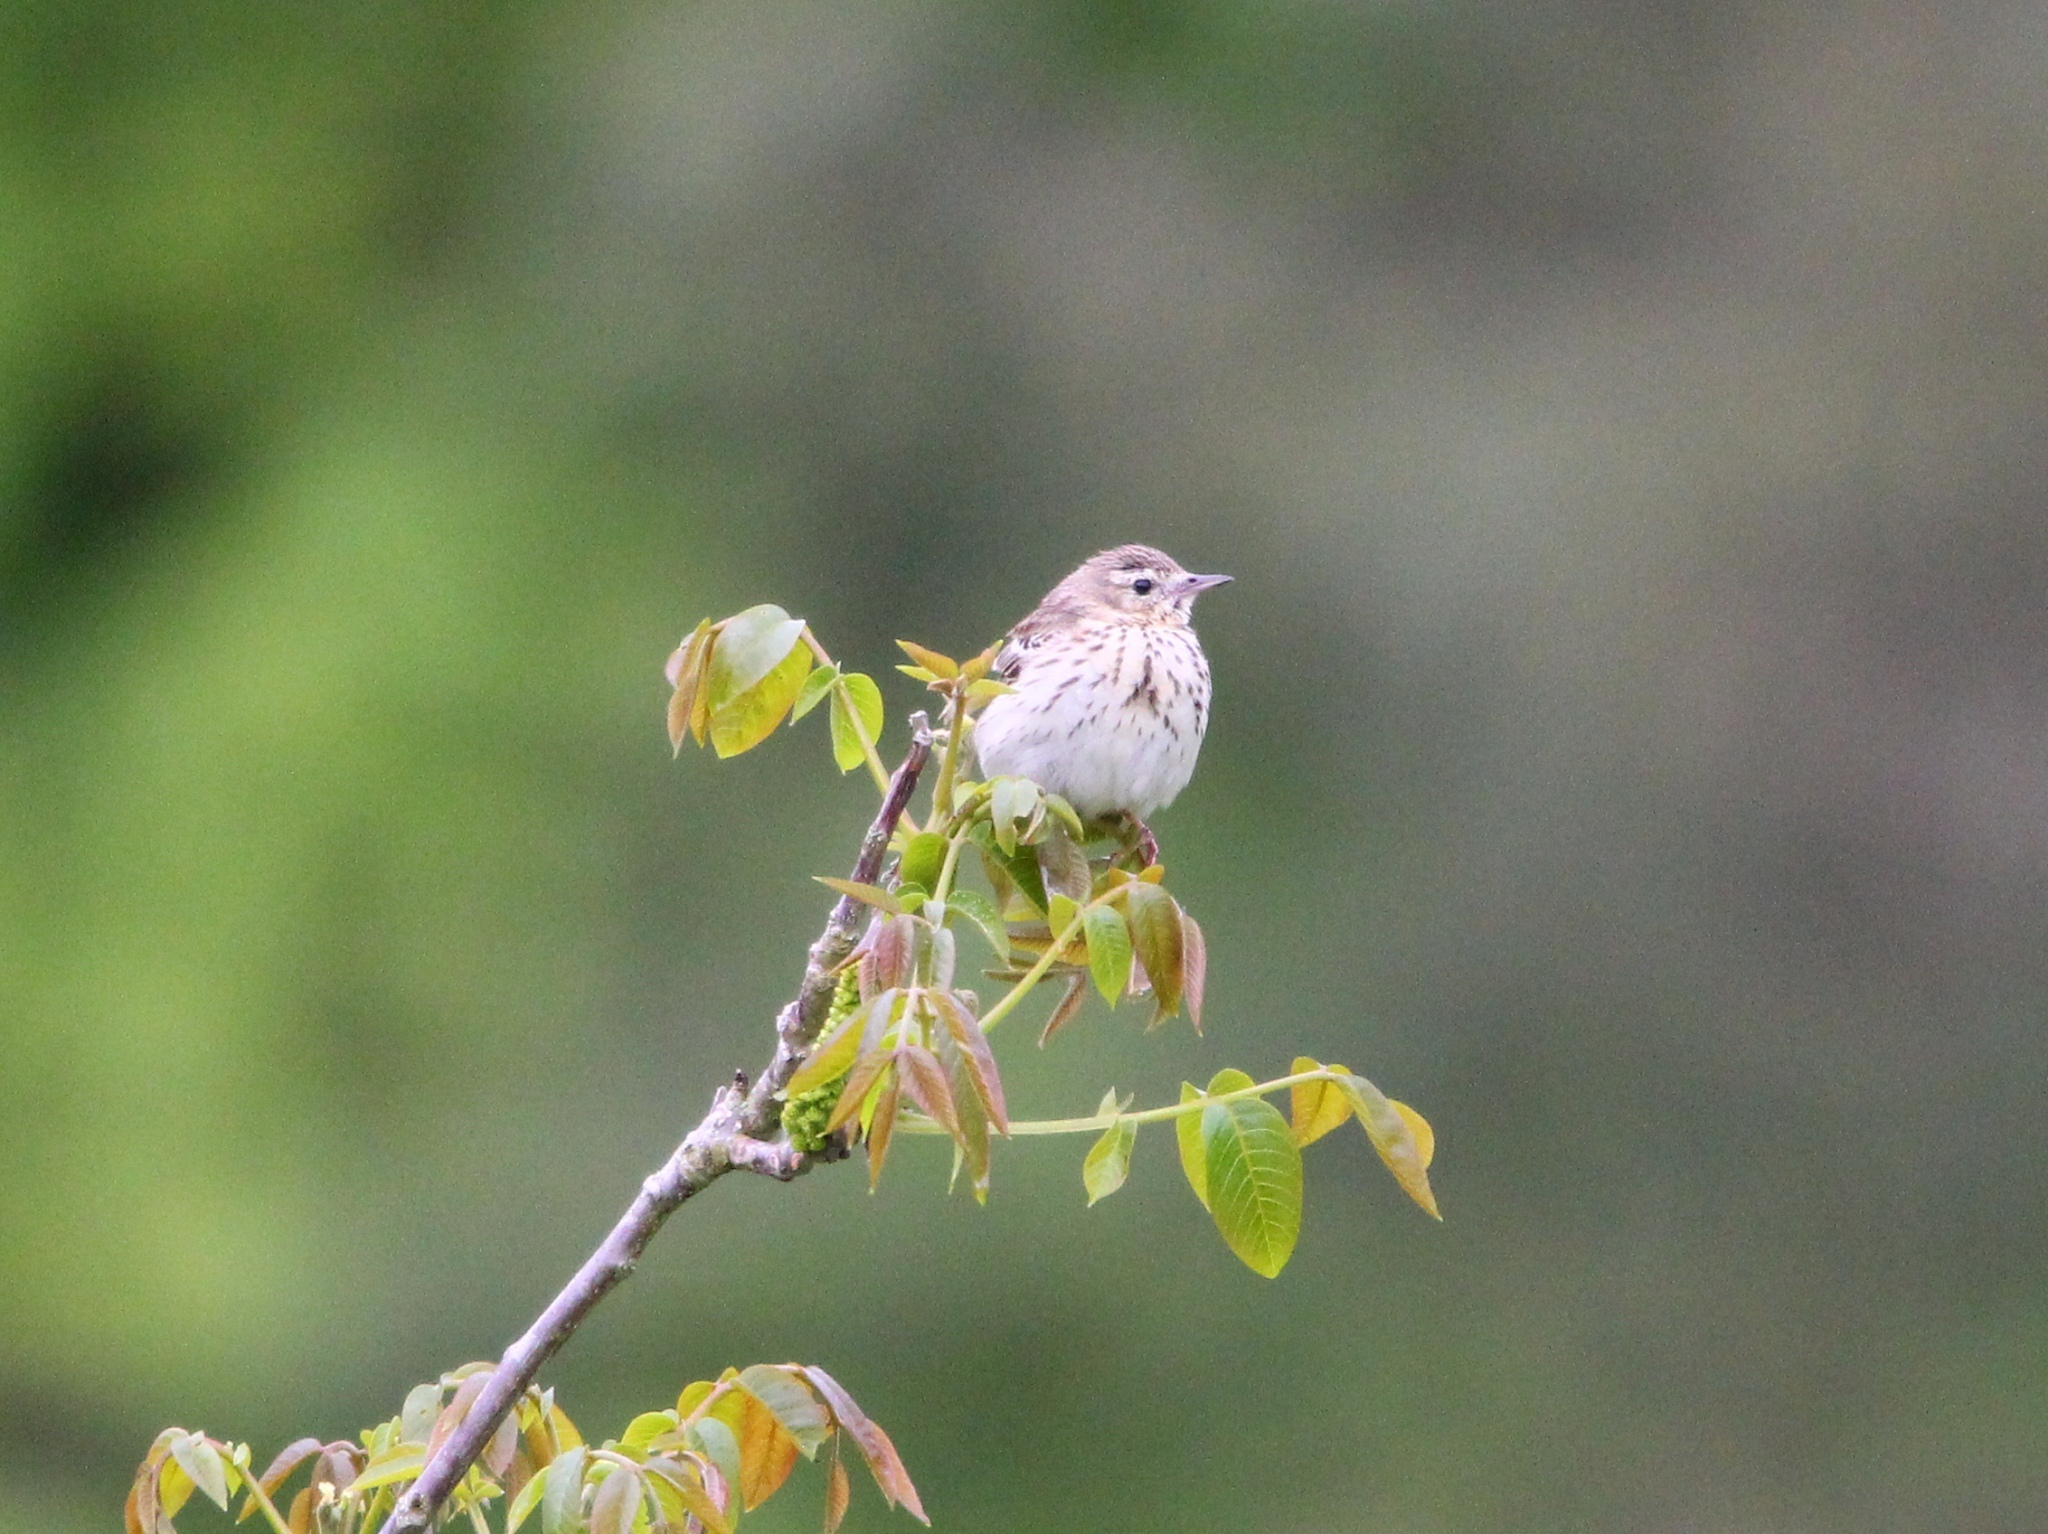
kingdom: Animalia
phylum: Chordata
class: Aves
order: Passeriformes
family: Motacillidae
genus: Anthus
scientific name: Anthus trivialis
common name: Tree pipit
